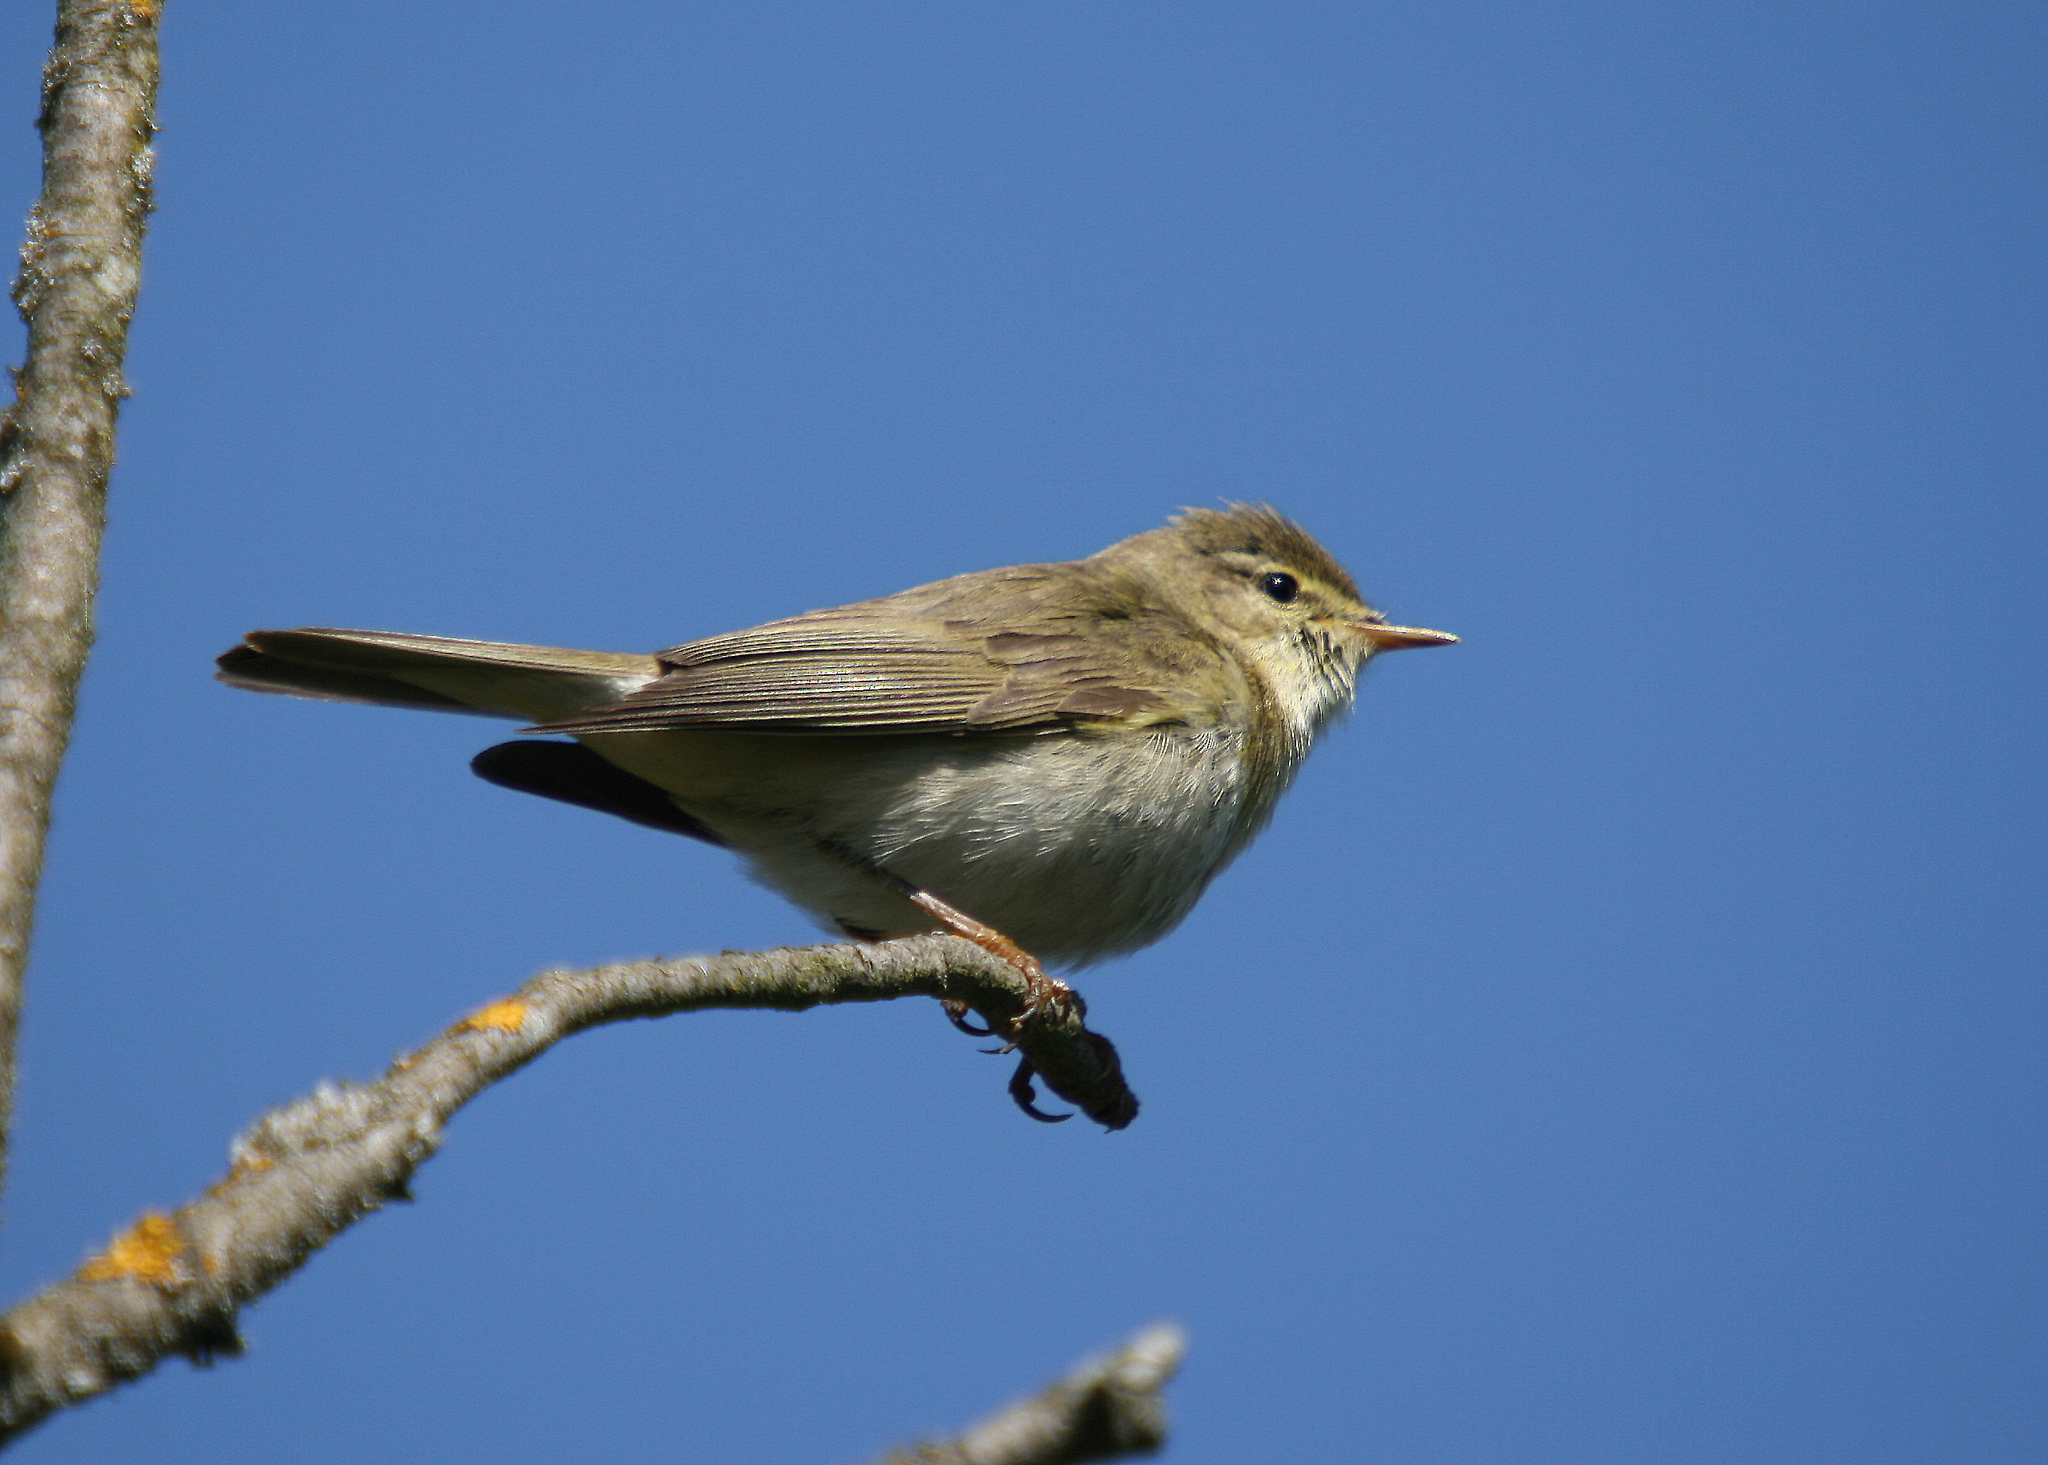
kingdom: Animalia
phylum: Chordata
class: Aves
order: Passeriformes
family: Phylloscopidae
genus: Phylloscopus
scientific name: Phylloscopus trochilus
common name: Willow warbler
